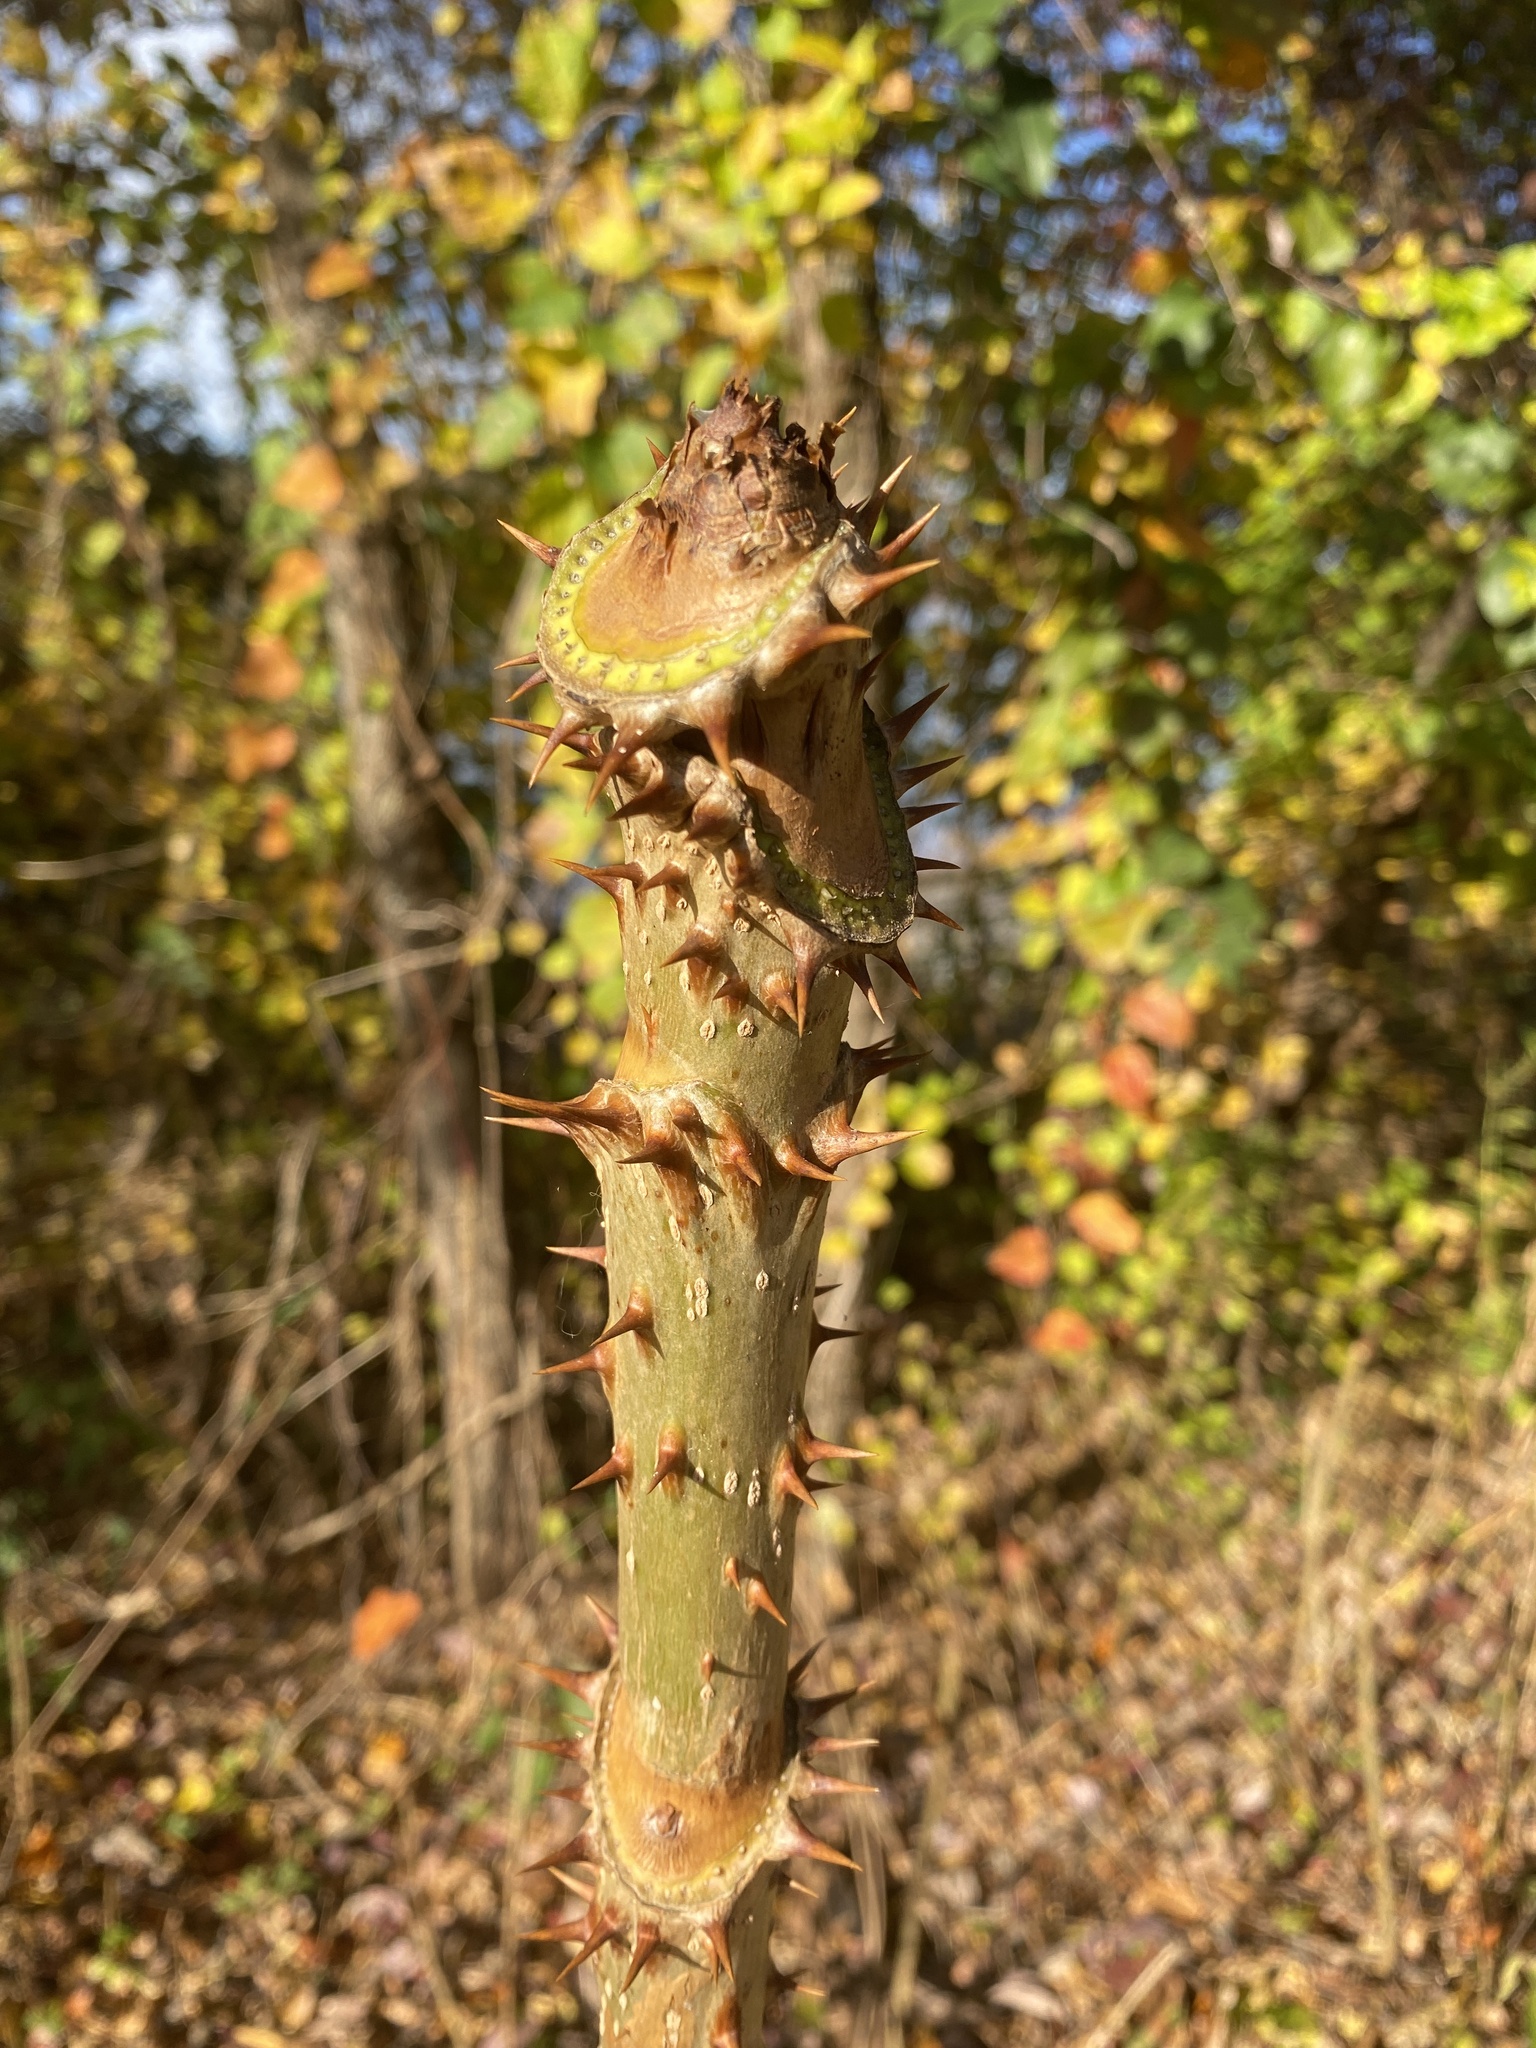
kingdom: Plantae
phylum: Tracheophyta
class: Magnoliopsida
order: Apiales
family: Araliaceae
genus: Aralia
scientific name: Aralia spinosa
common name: Hercules'-club
